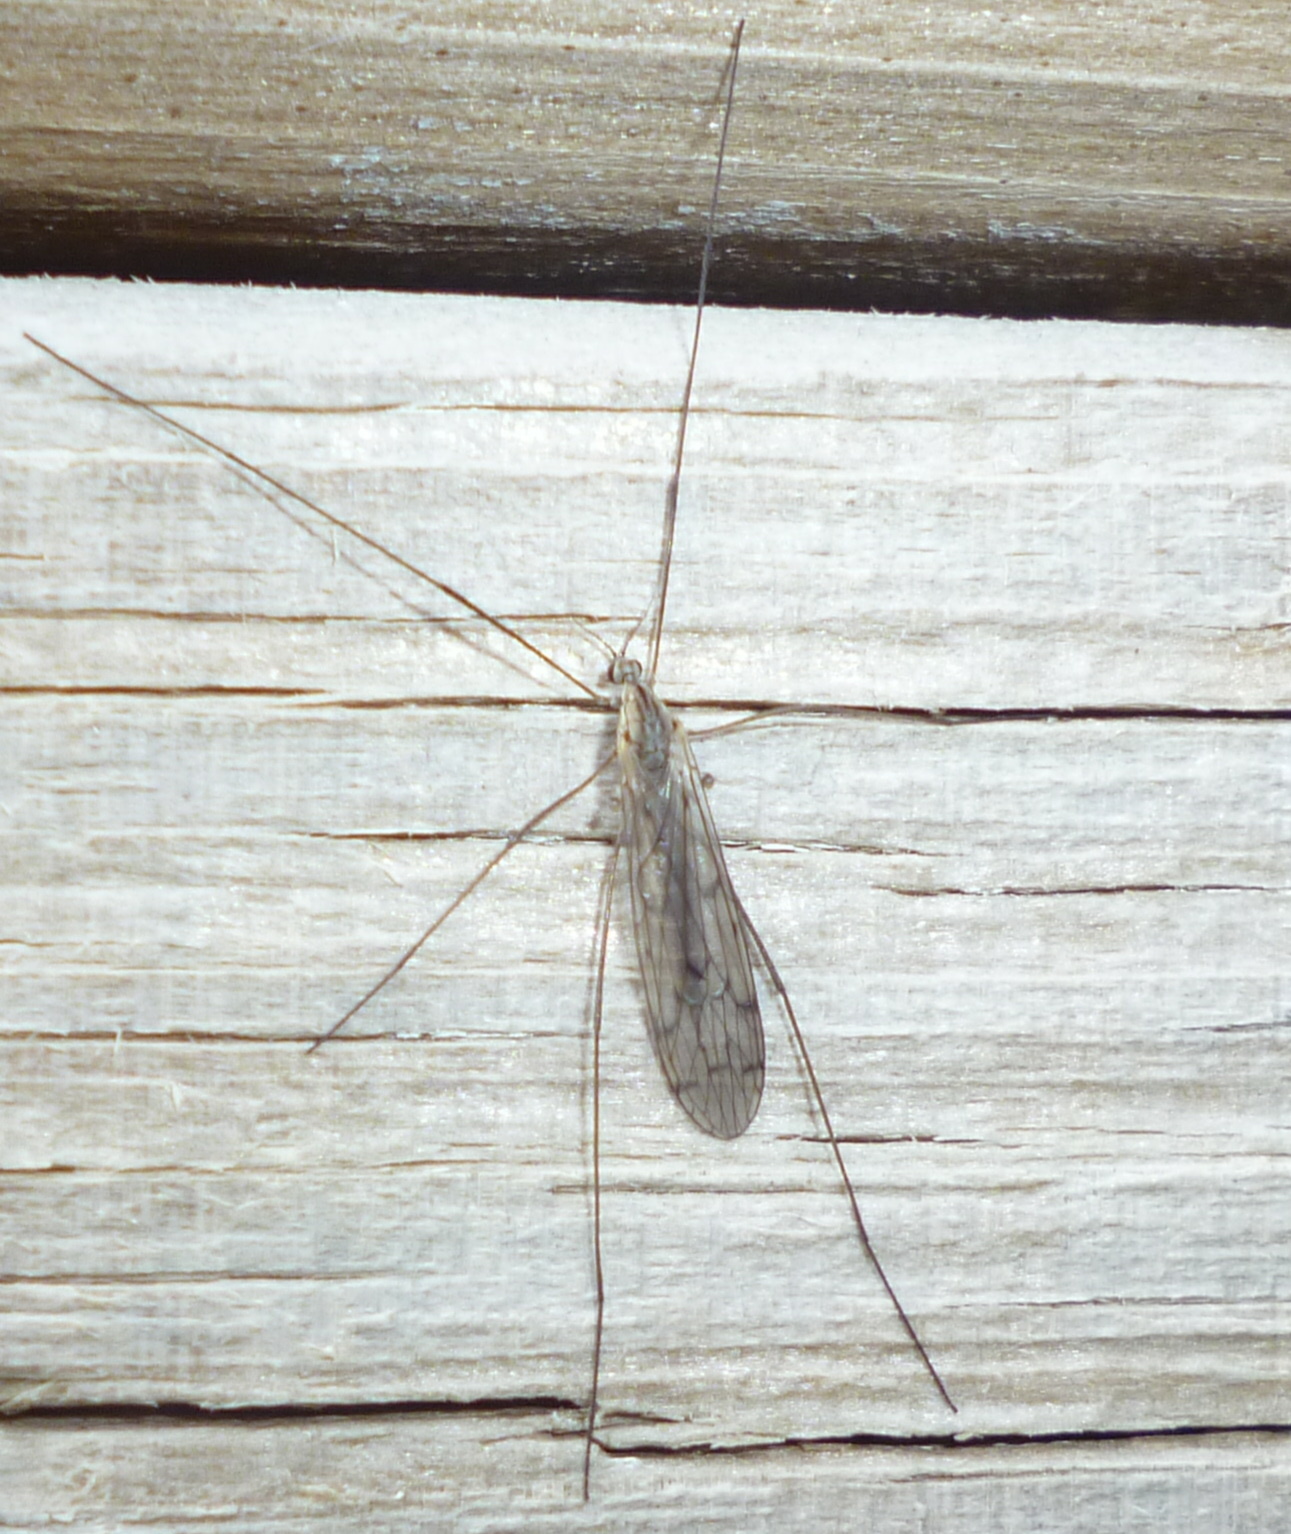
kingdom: Animalia
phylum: Arthropoda
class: Insecta
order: Diptera
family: Limoniidae
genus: Symplecta
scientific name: Symplecta cana
